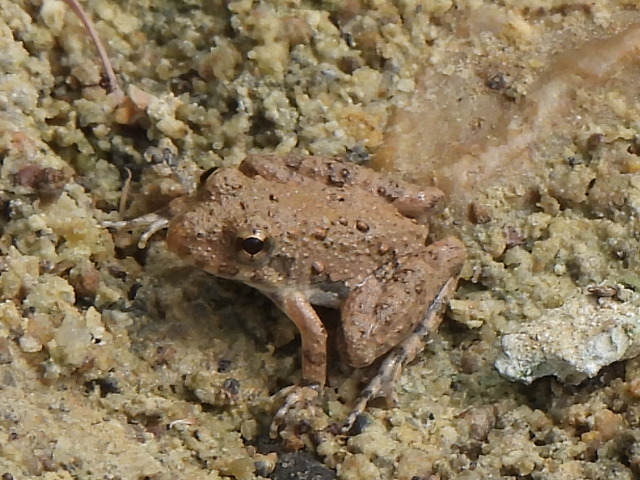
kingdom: Animalia
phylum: Chordata
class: Amphibia
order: Anura
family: Hylidae
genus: Acris
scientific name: Acris blanchardi
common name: Blanchard's cricket frog
